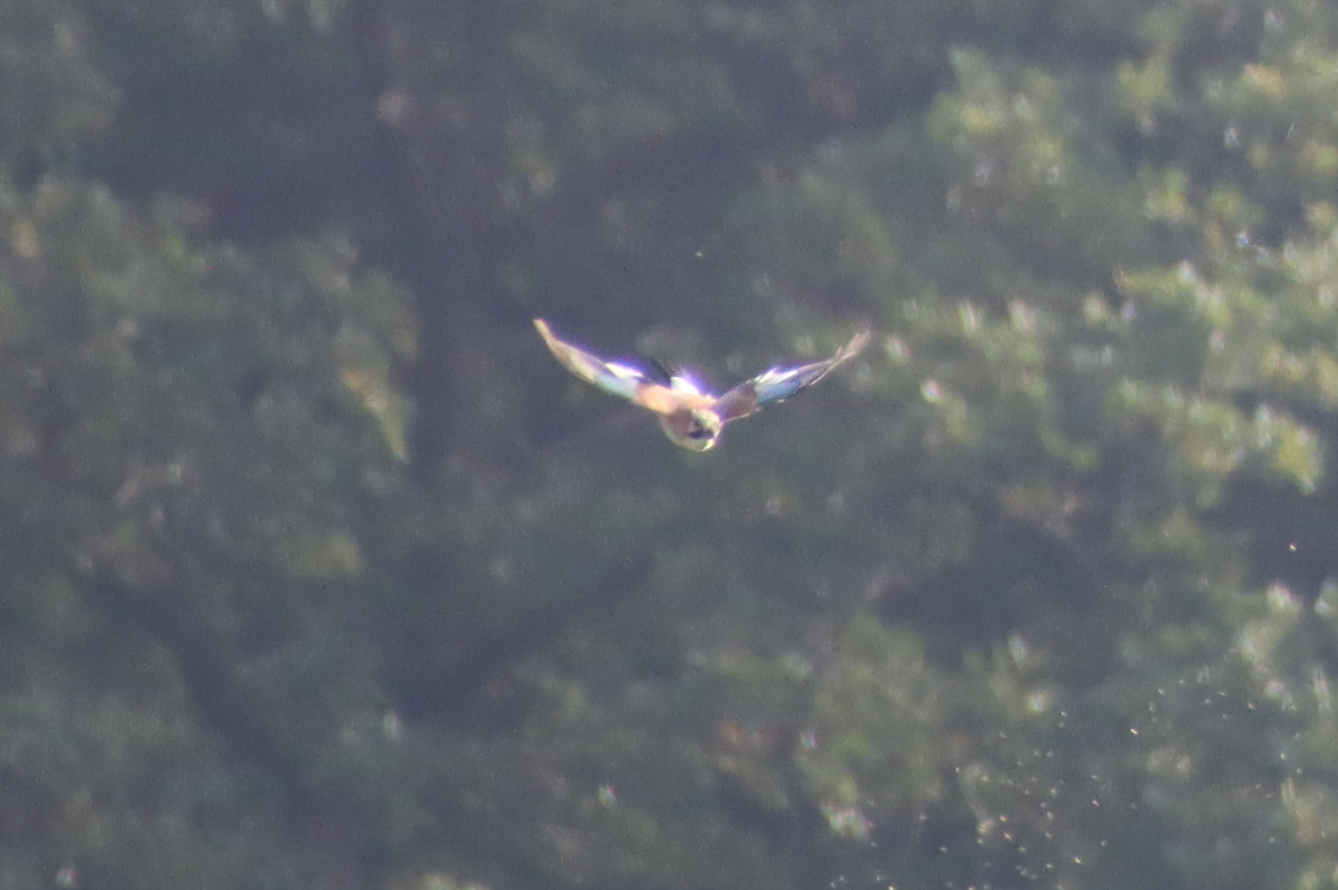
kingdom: Animalia
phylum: Chordata
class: Aves
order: Passeriformes
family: Corvidae
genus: Garrulus
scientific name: Garrulus glandarius
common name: Eurasian jay
